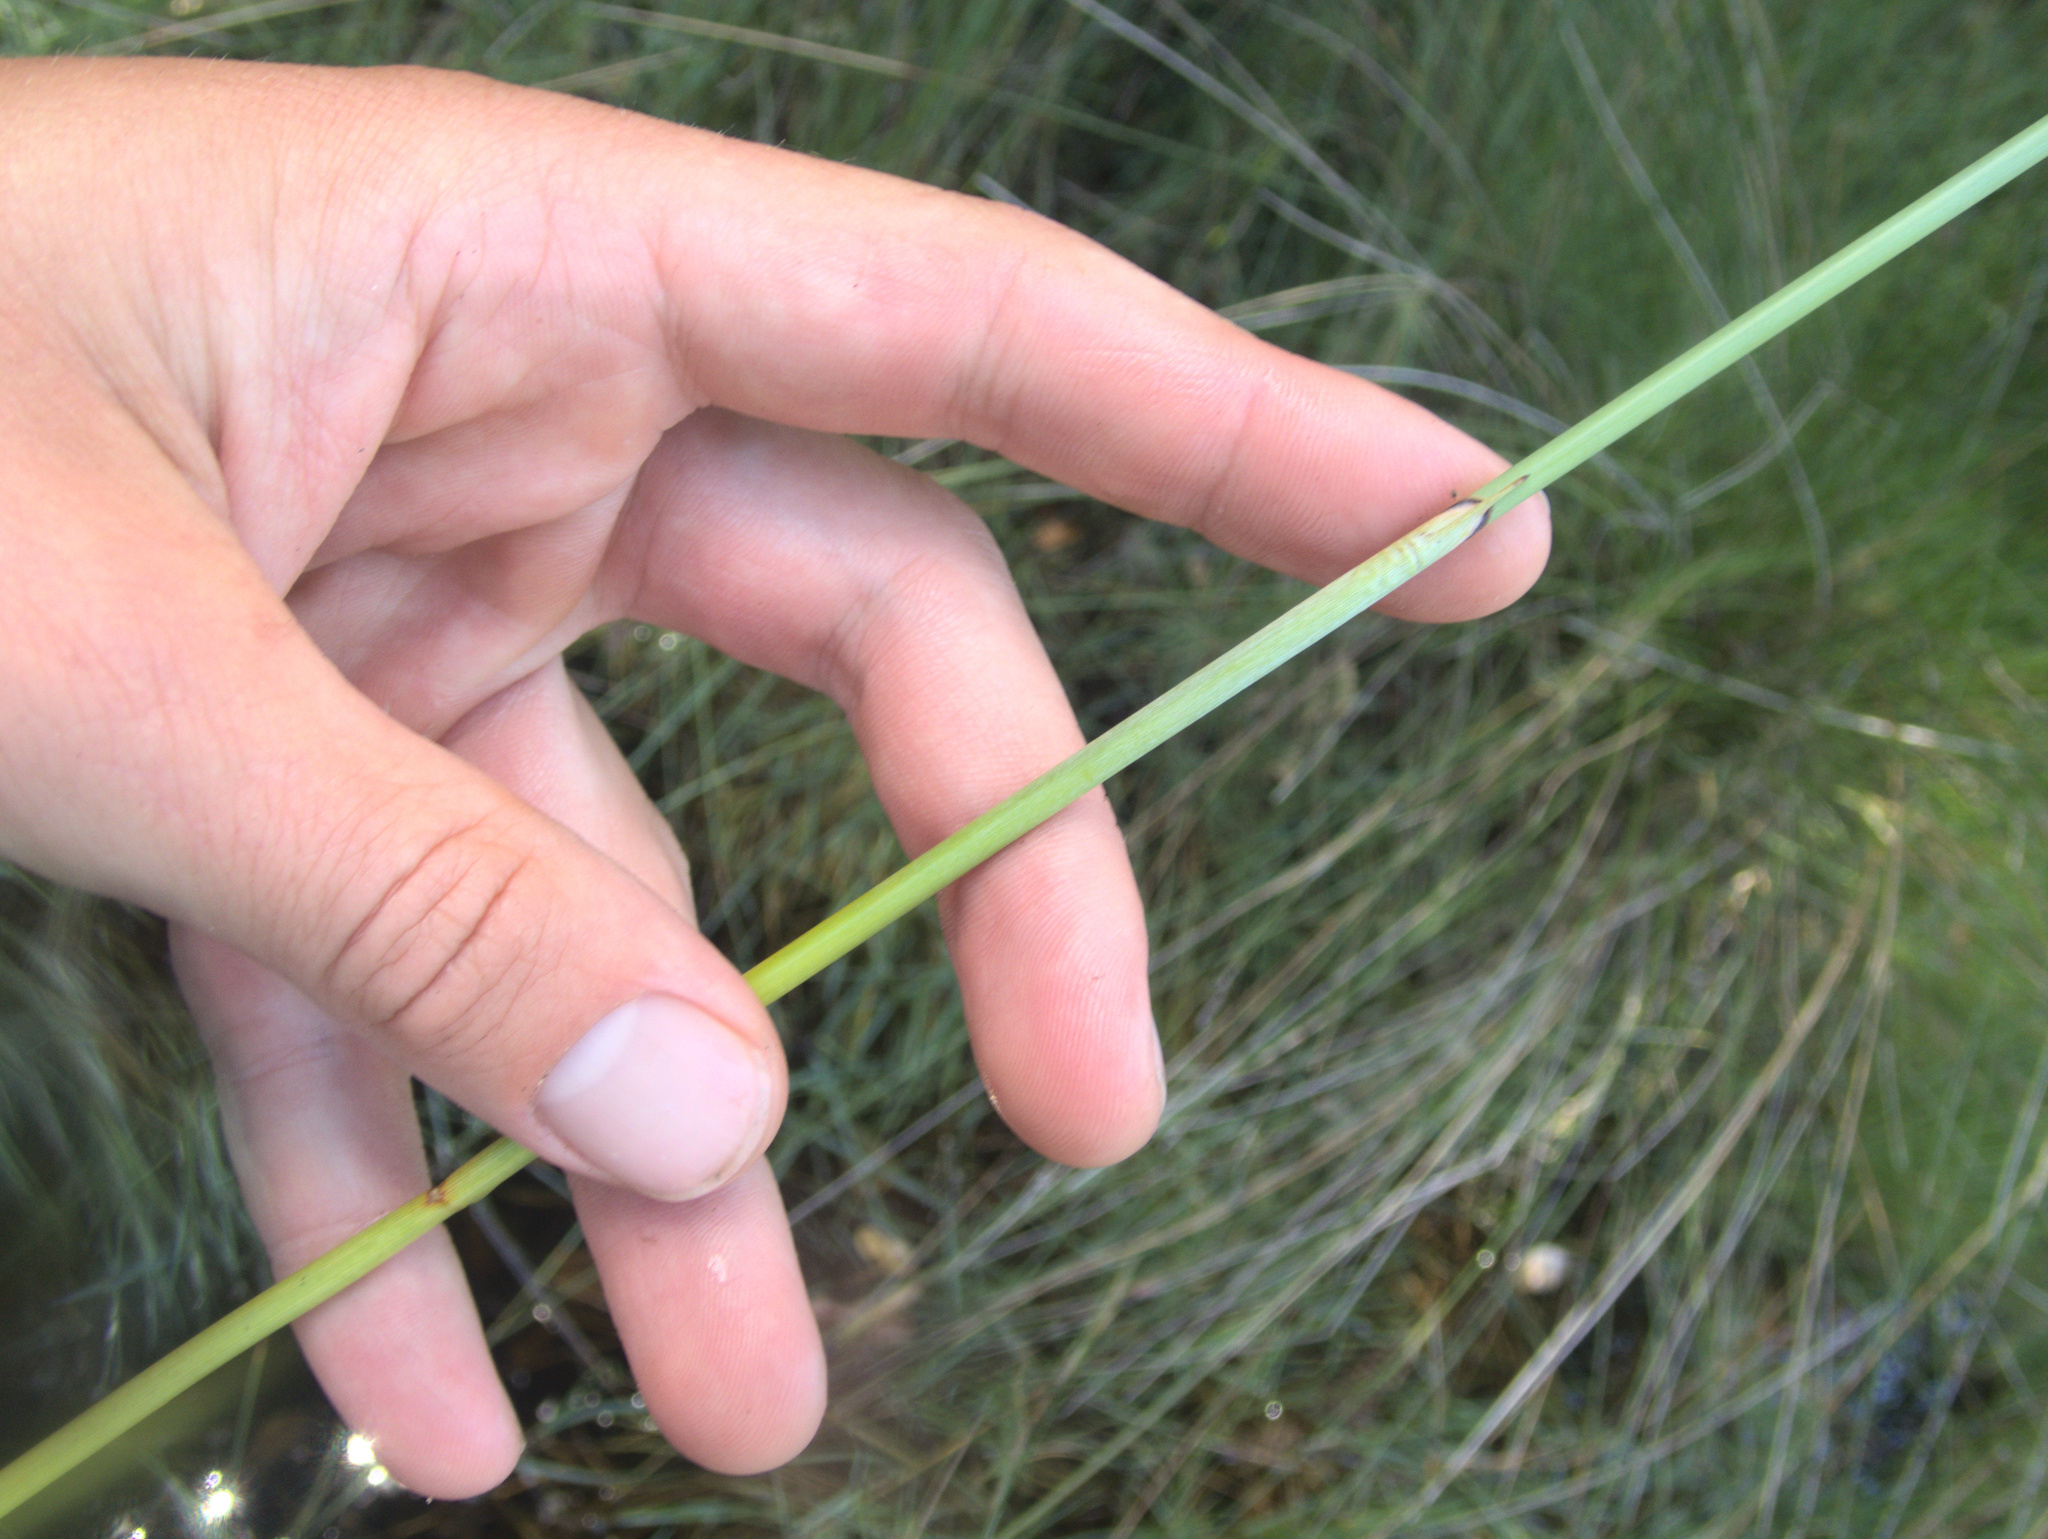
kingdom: Plantae
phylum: Tracheophyta
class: Liliopsida
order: Poales
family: Cyperaceae
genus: Machaerina
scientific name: Machaerina juncea
